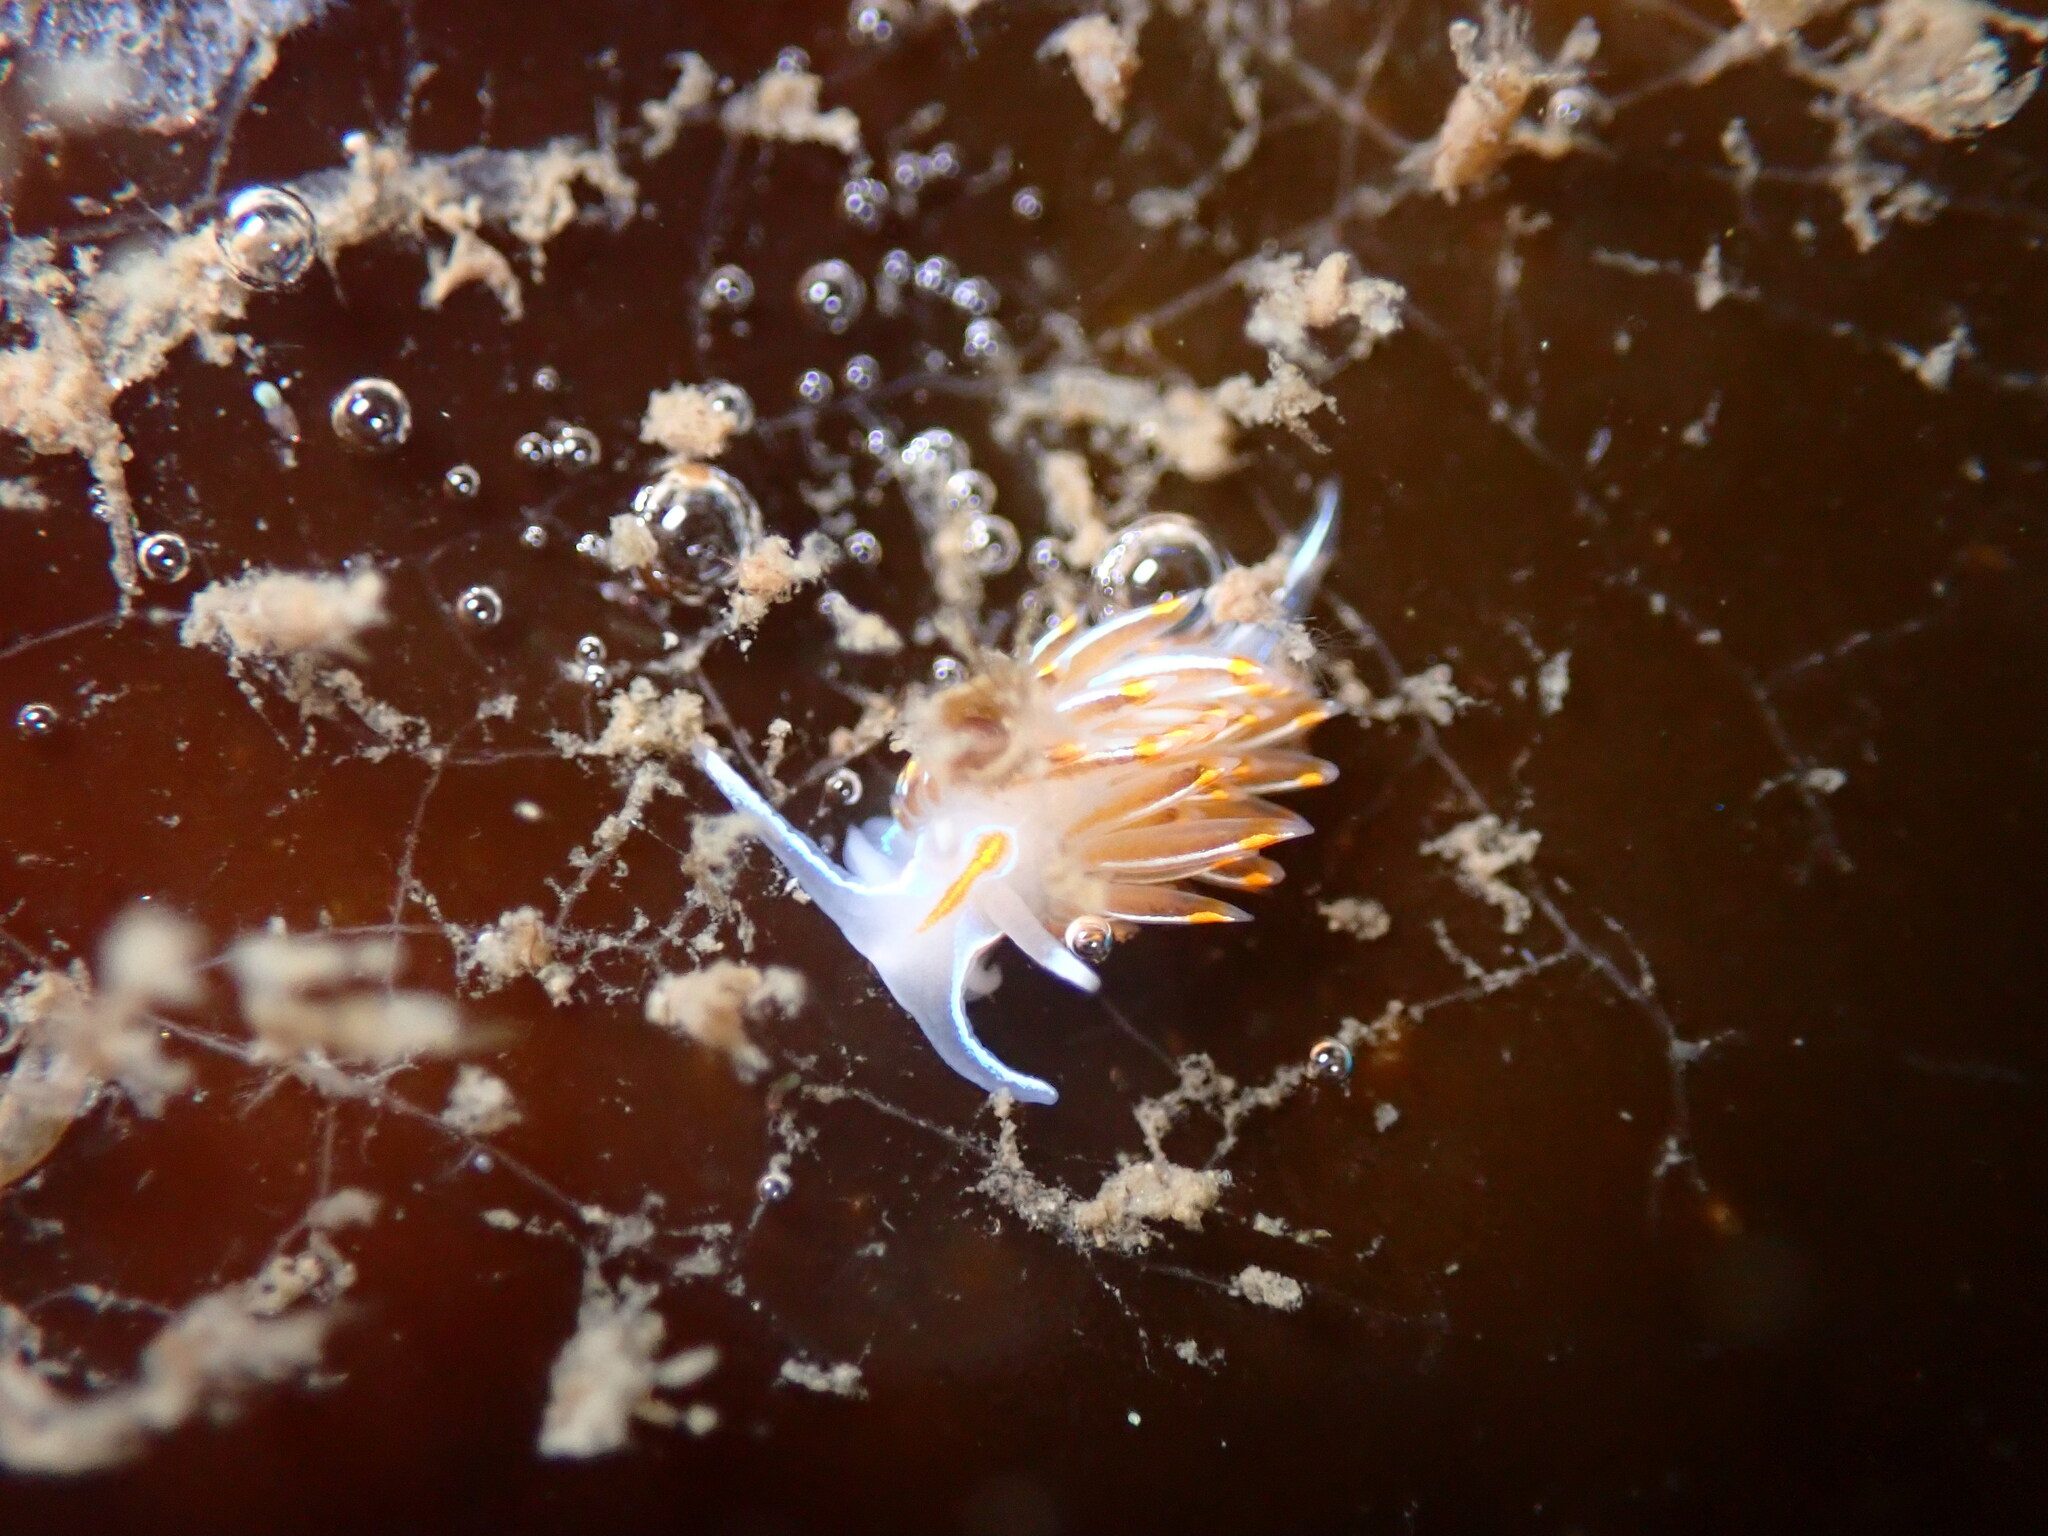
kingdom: Animalia
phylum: Mollusca
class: Gastropoda
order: Nudibranchia
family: Myrrhinidae
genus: Hermissenda
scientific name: Hermissenda crassicornis
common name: Hermissenda
